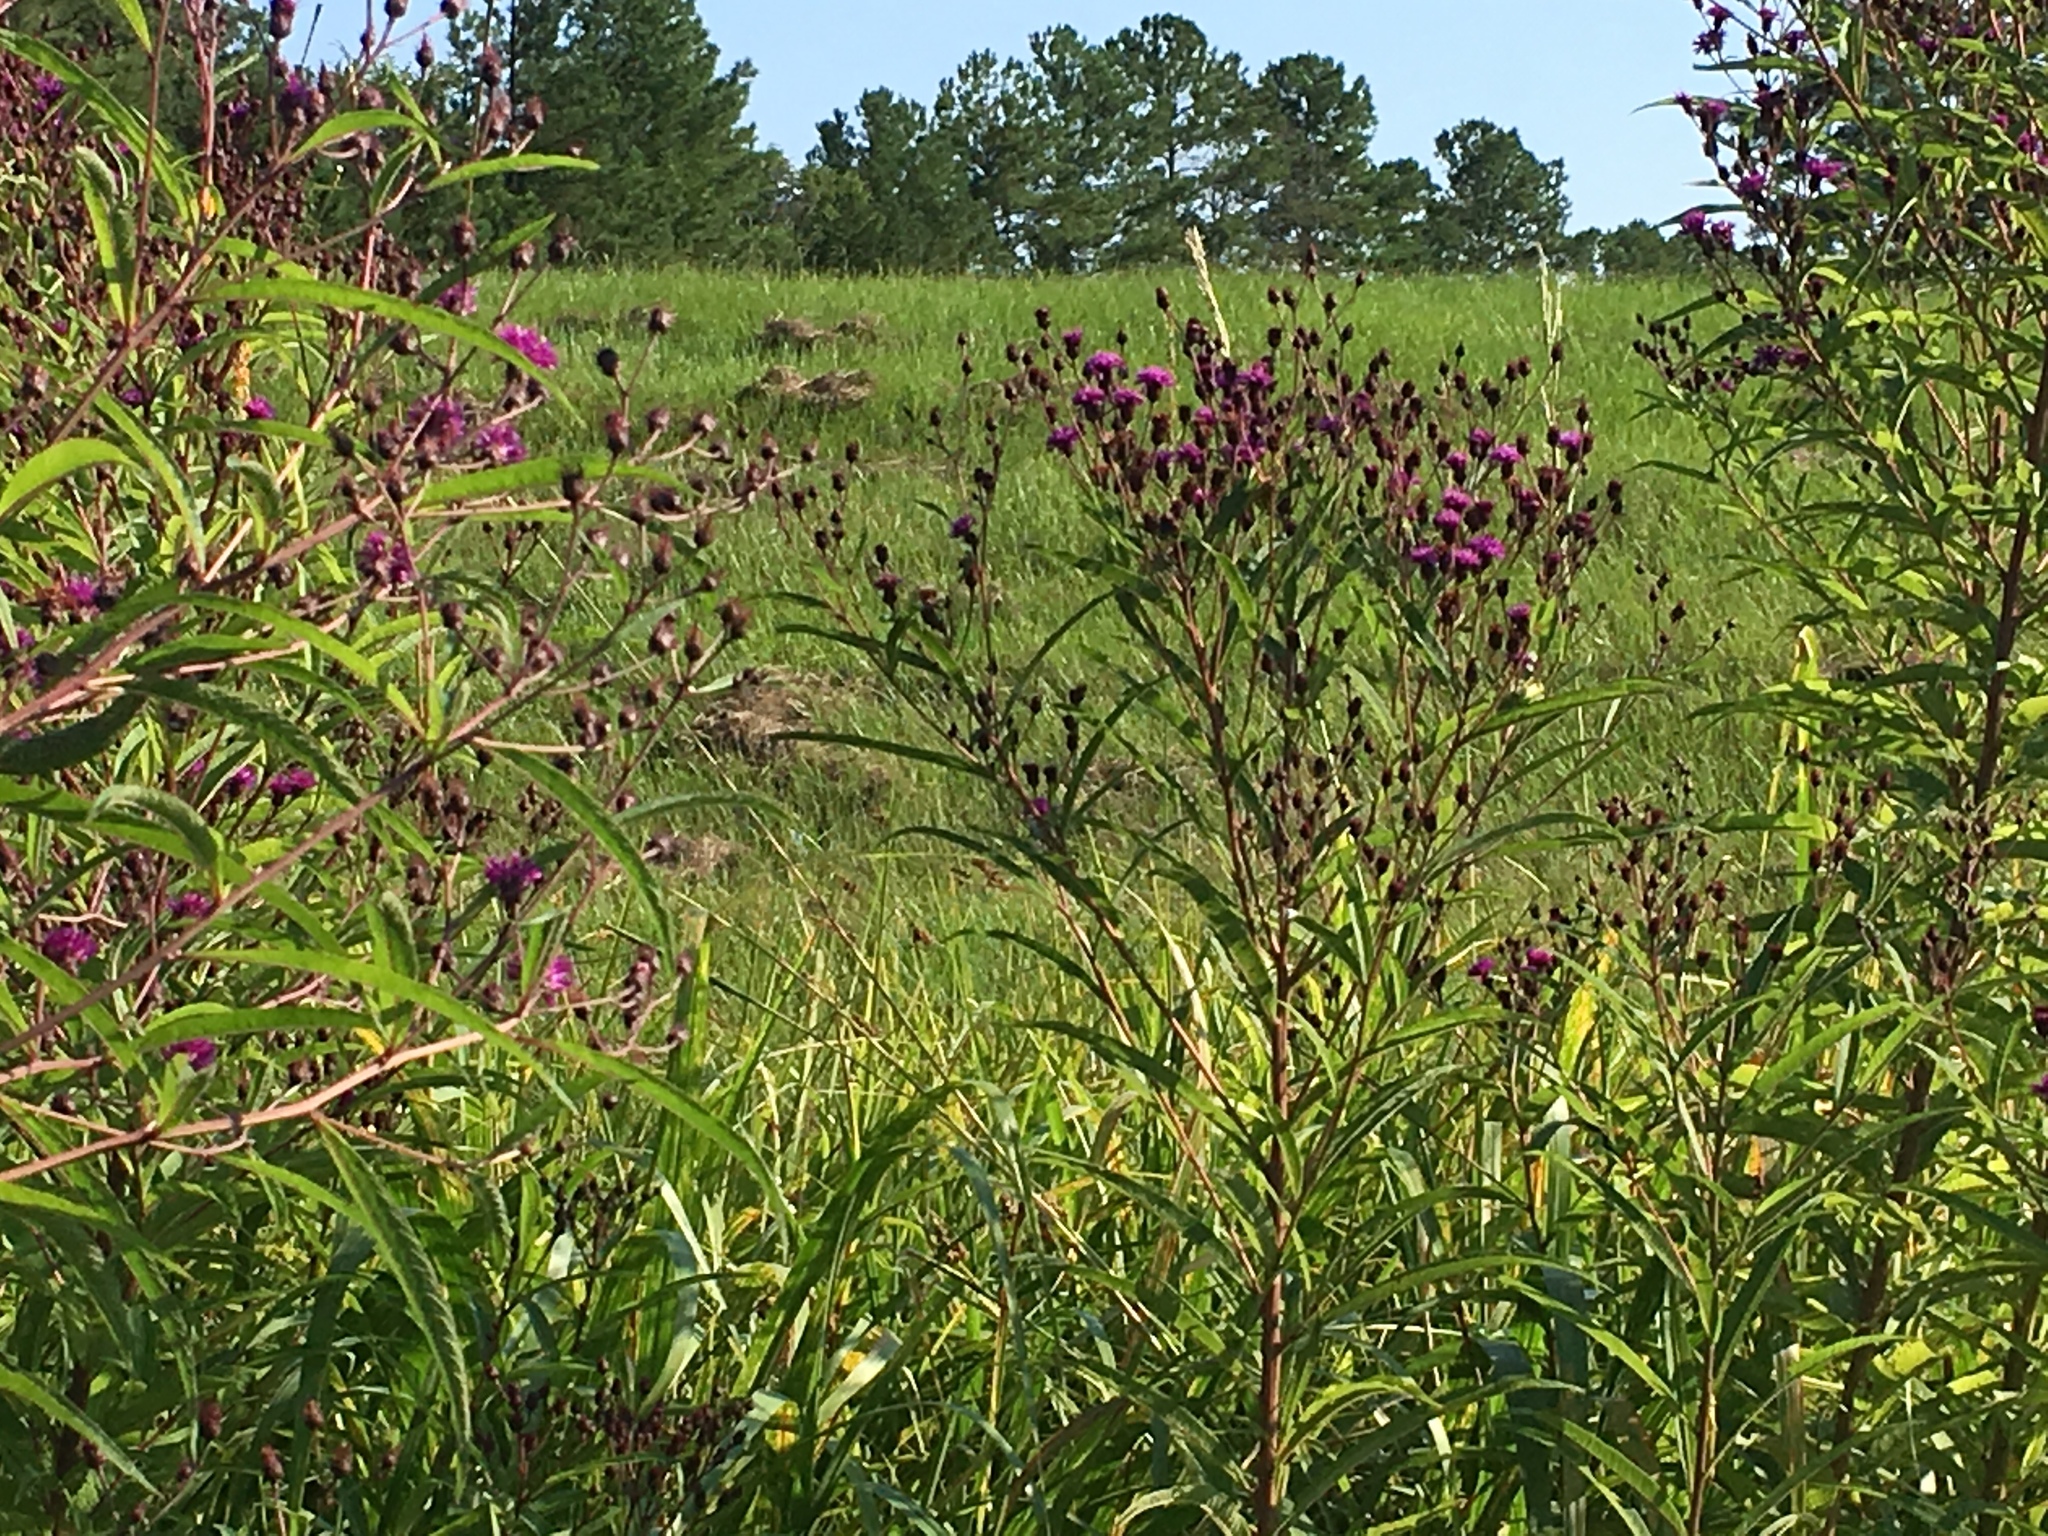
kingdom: Plantae
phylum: Tracheophyta
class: Magnoliopsida
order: Asterales
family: Asteraceae
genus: Vernonia
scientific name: Vernonia noveboracensis
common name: New york ironweed
